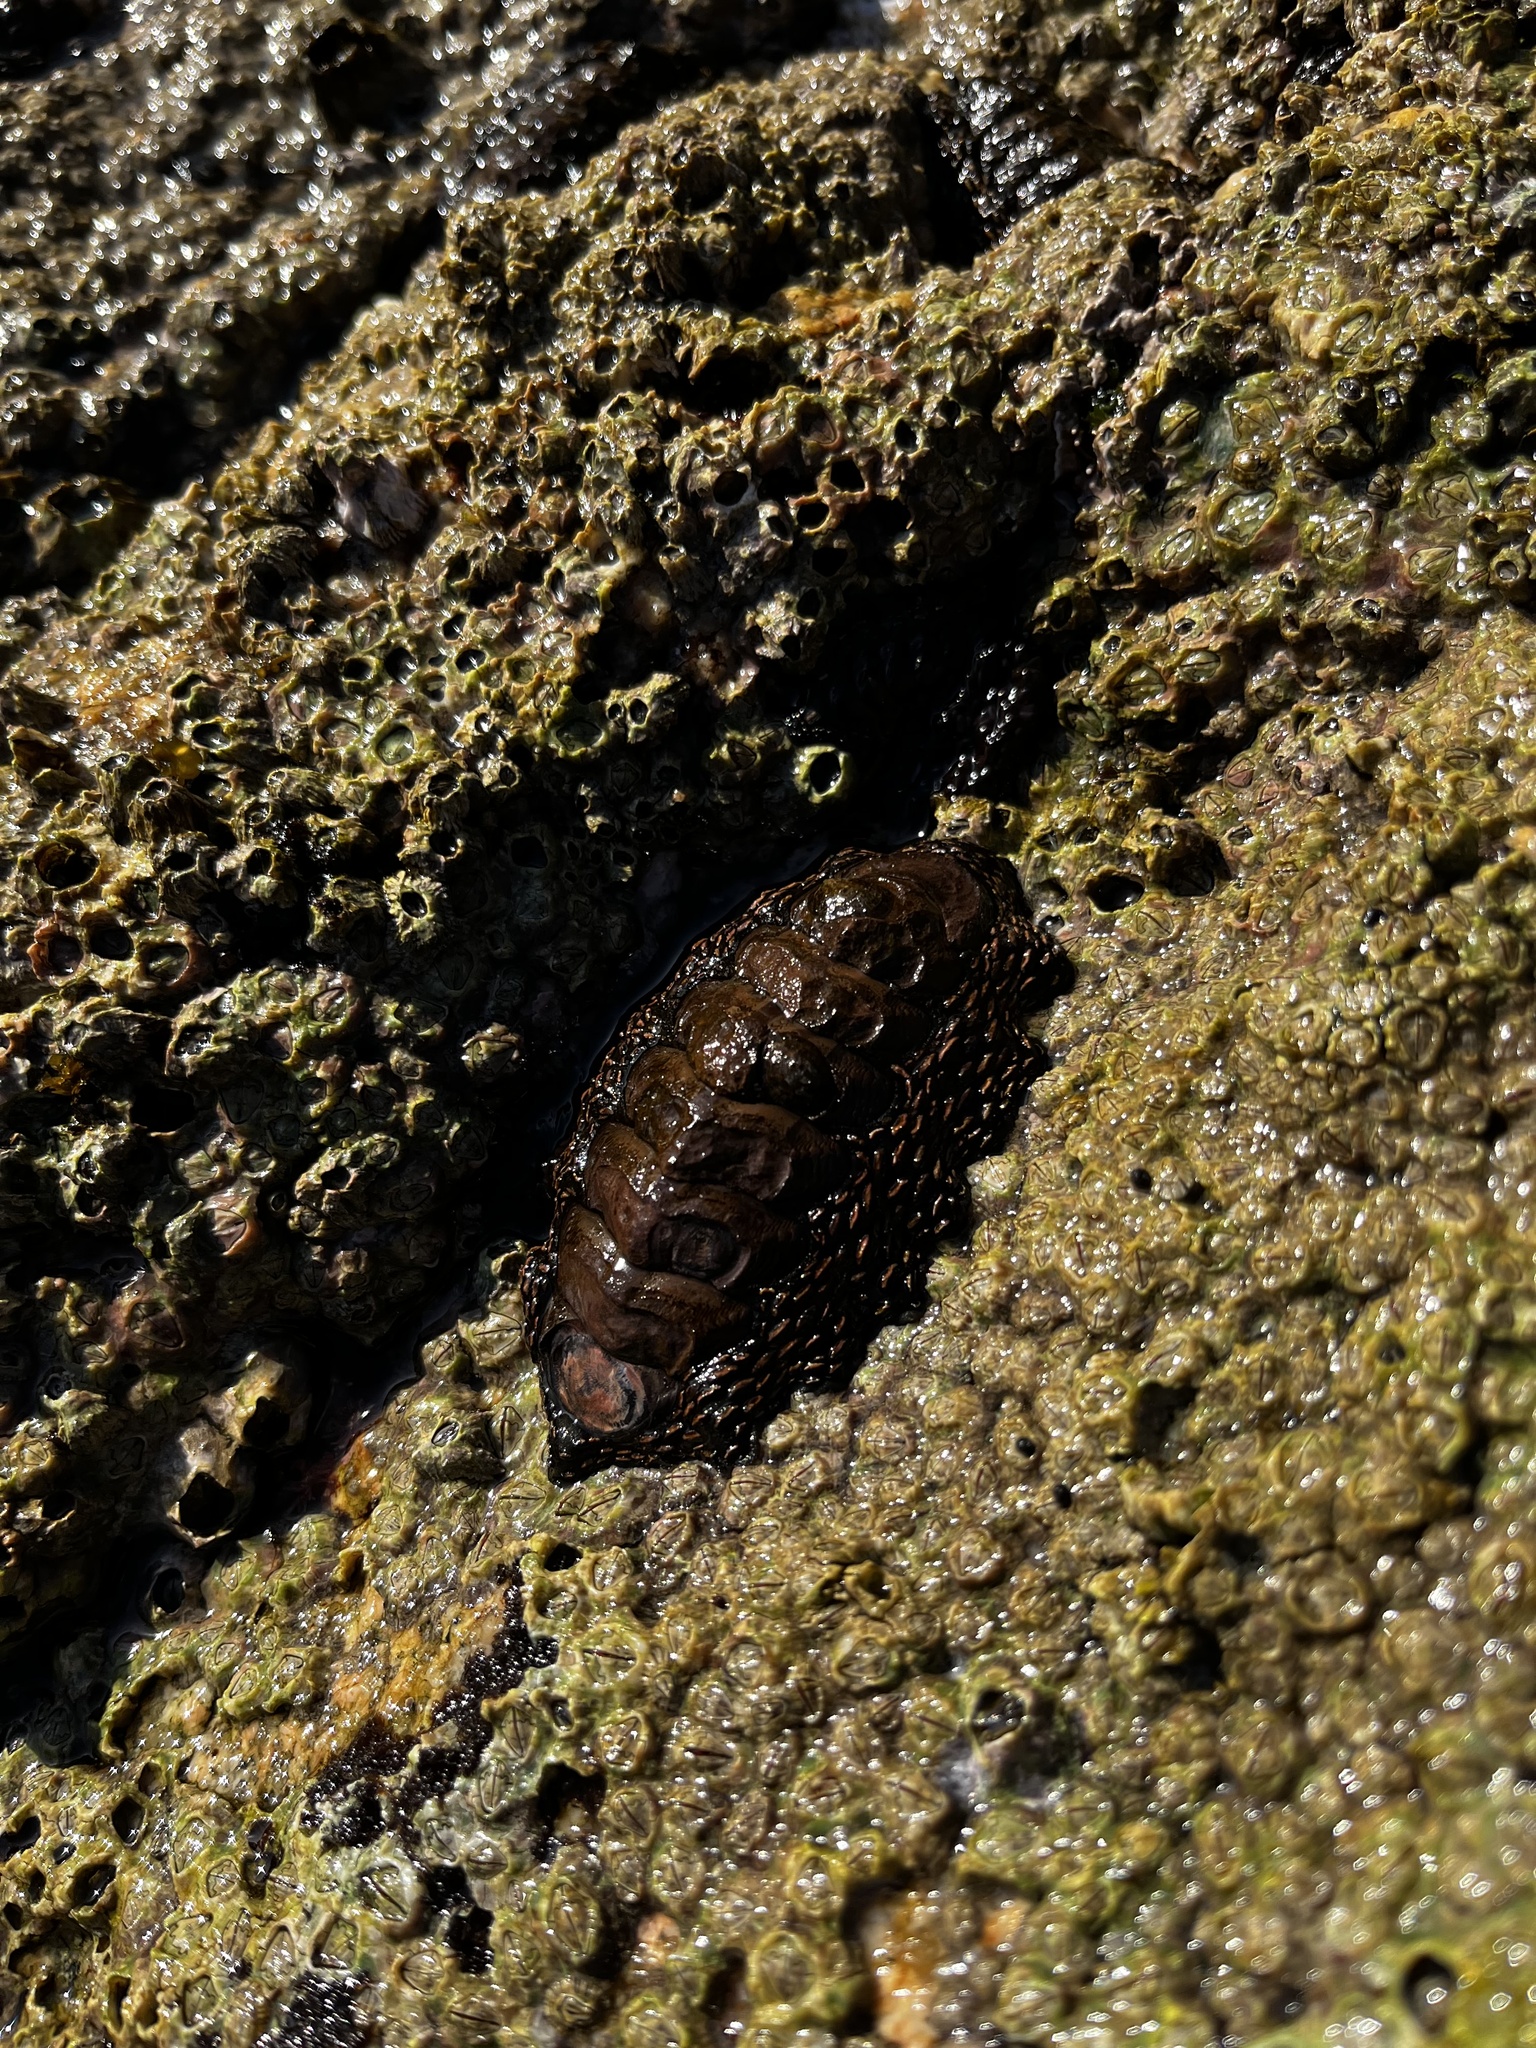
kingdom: Animalia
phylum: Mollusca
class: Polyplacophora
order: Chitonida
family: Chitonidae
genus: Enoplochiton
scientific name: Enoplochiton niger
